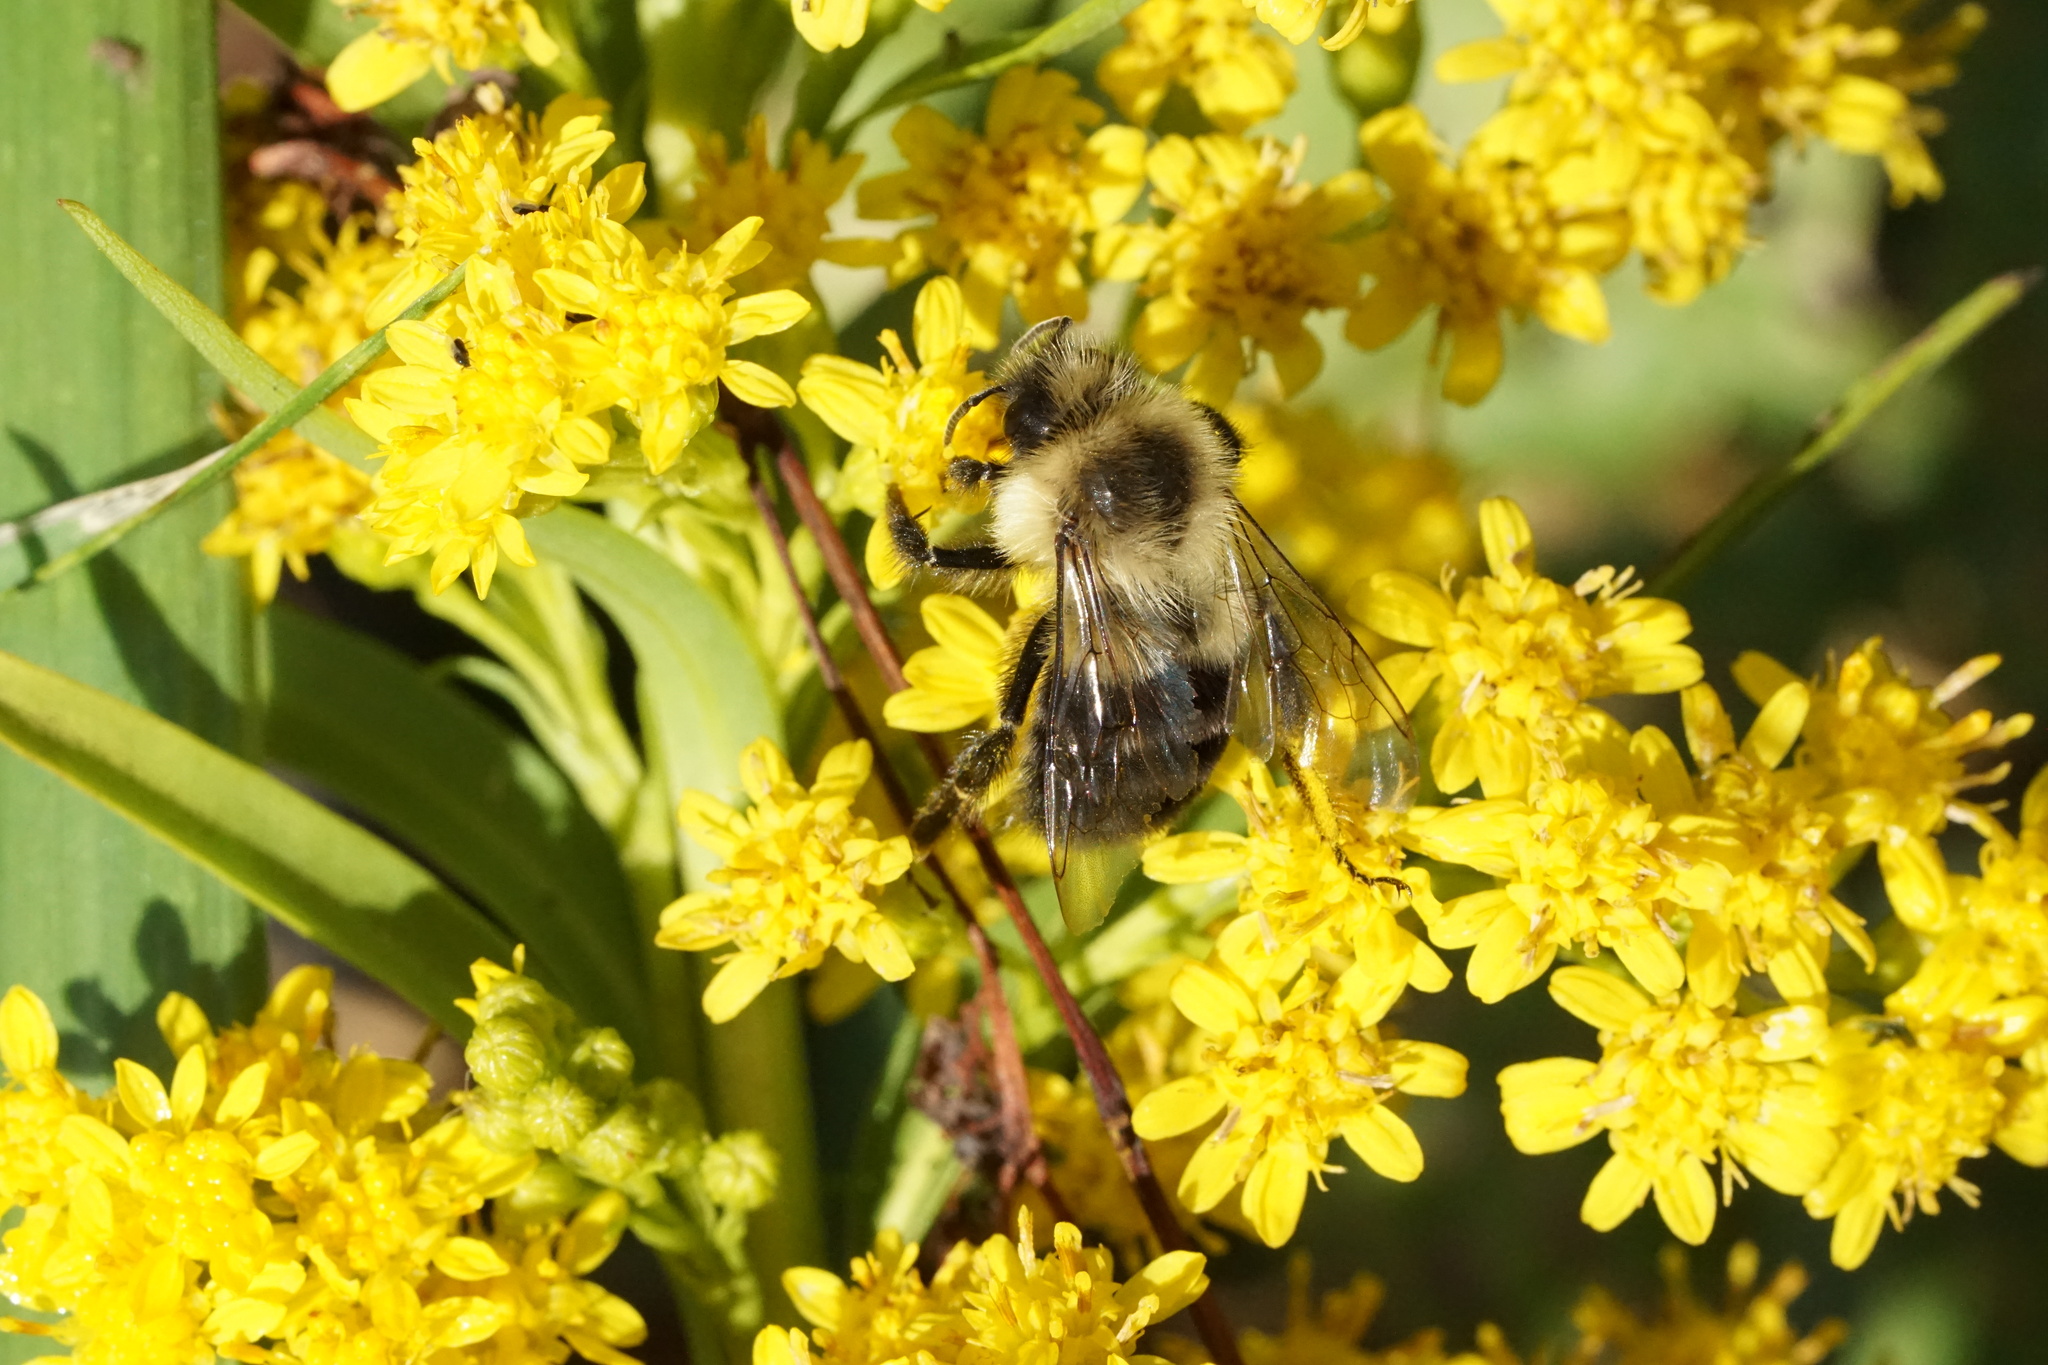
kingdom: Animalia
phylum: Arthropoda
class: Insecta
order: Hymenoptera
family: Apidae
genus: Bombus
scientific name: Bombus impatiens
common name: Common eastern bumble bee
